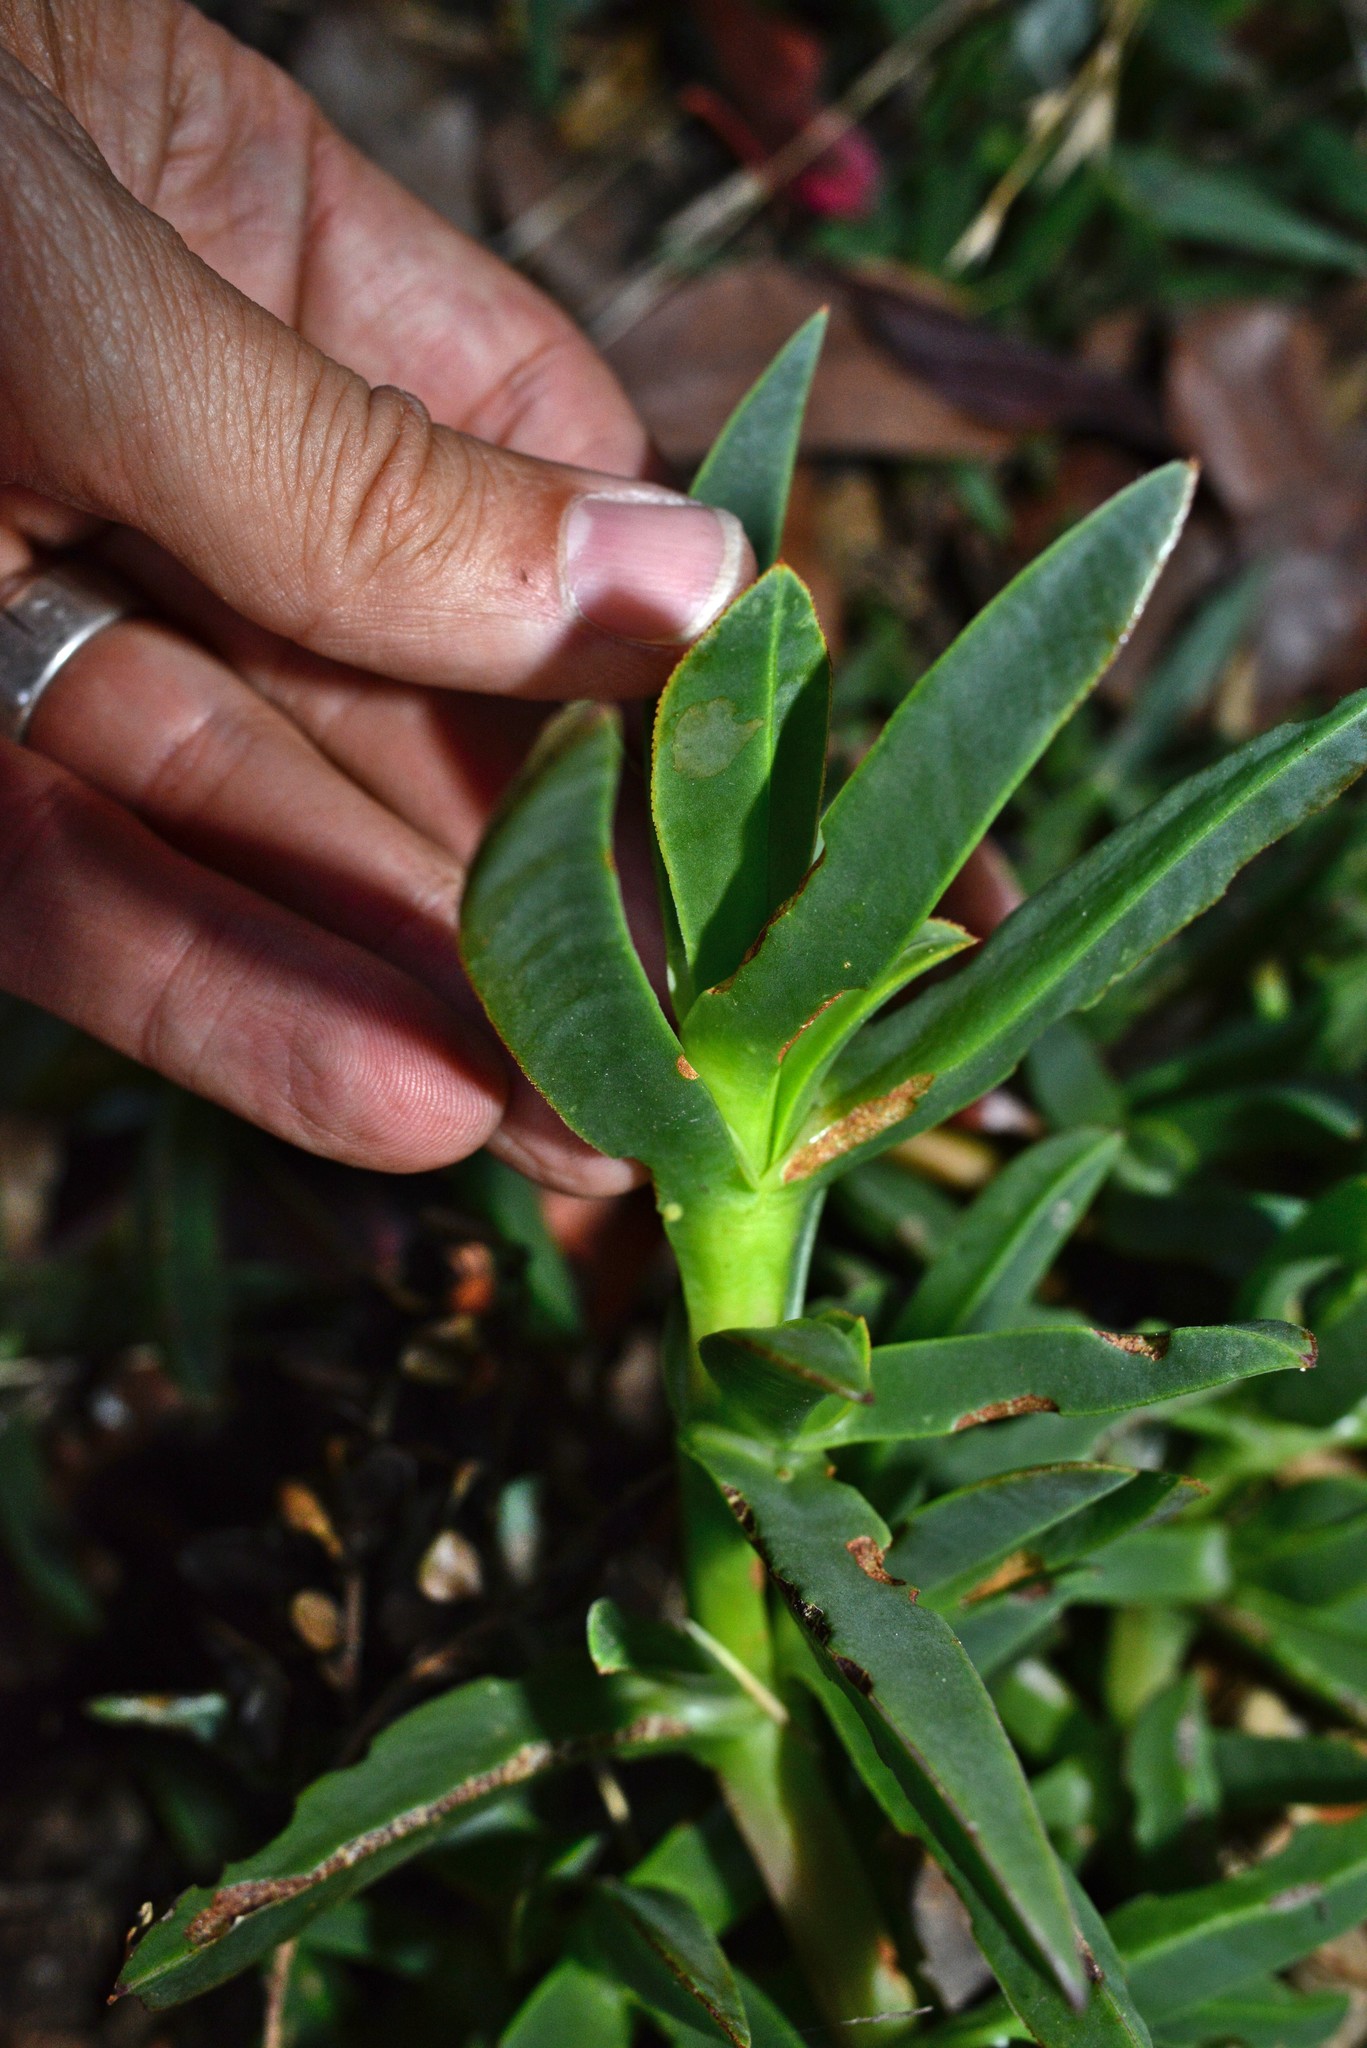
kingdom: Plantae
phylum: Tracheophyta
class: Magnoliopsida
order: Caryophyllales
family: Aizoaceae
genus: Carpobrotus
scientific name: Carpobrotus edulis
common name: Hottentot-fig
